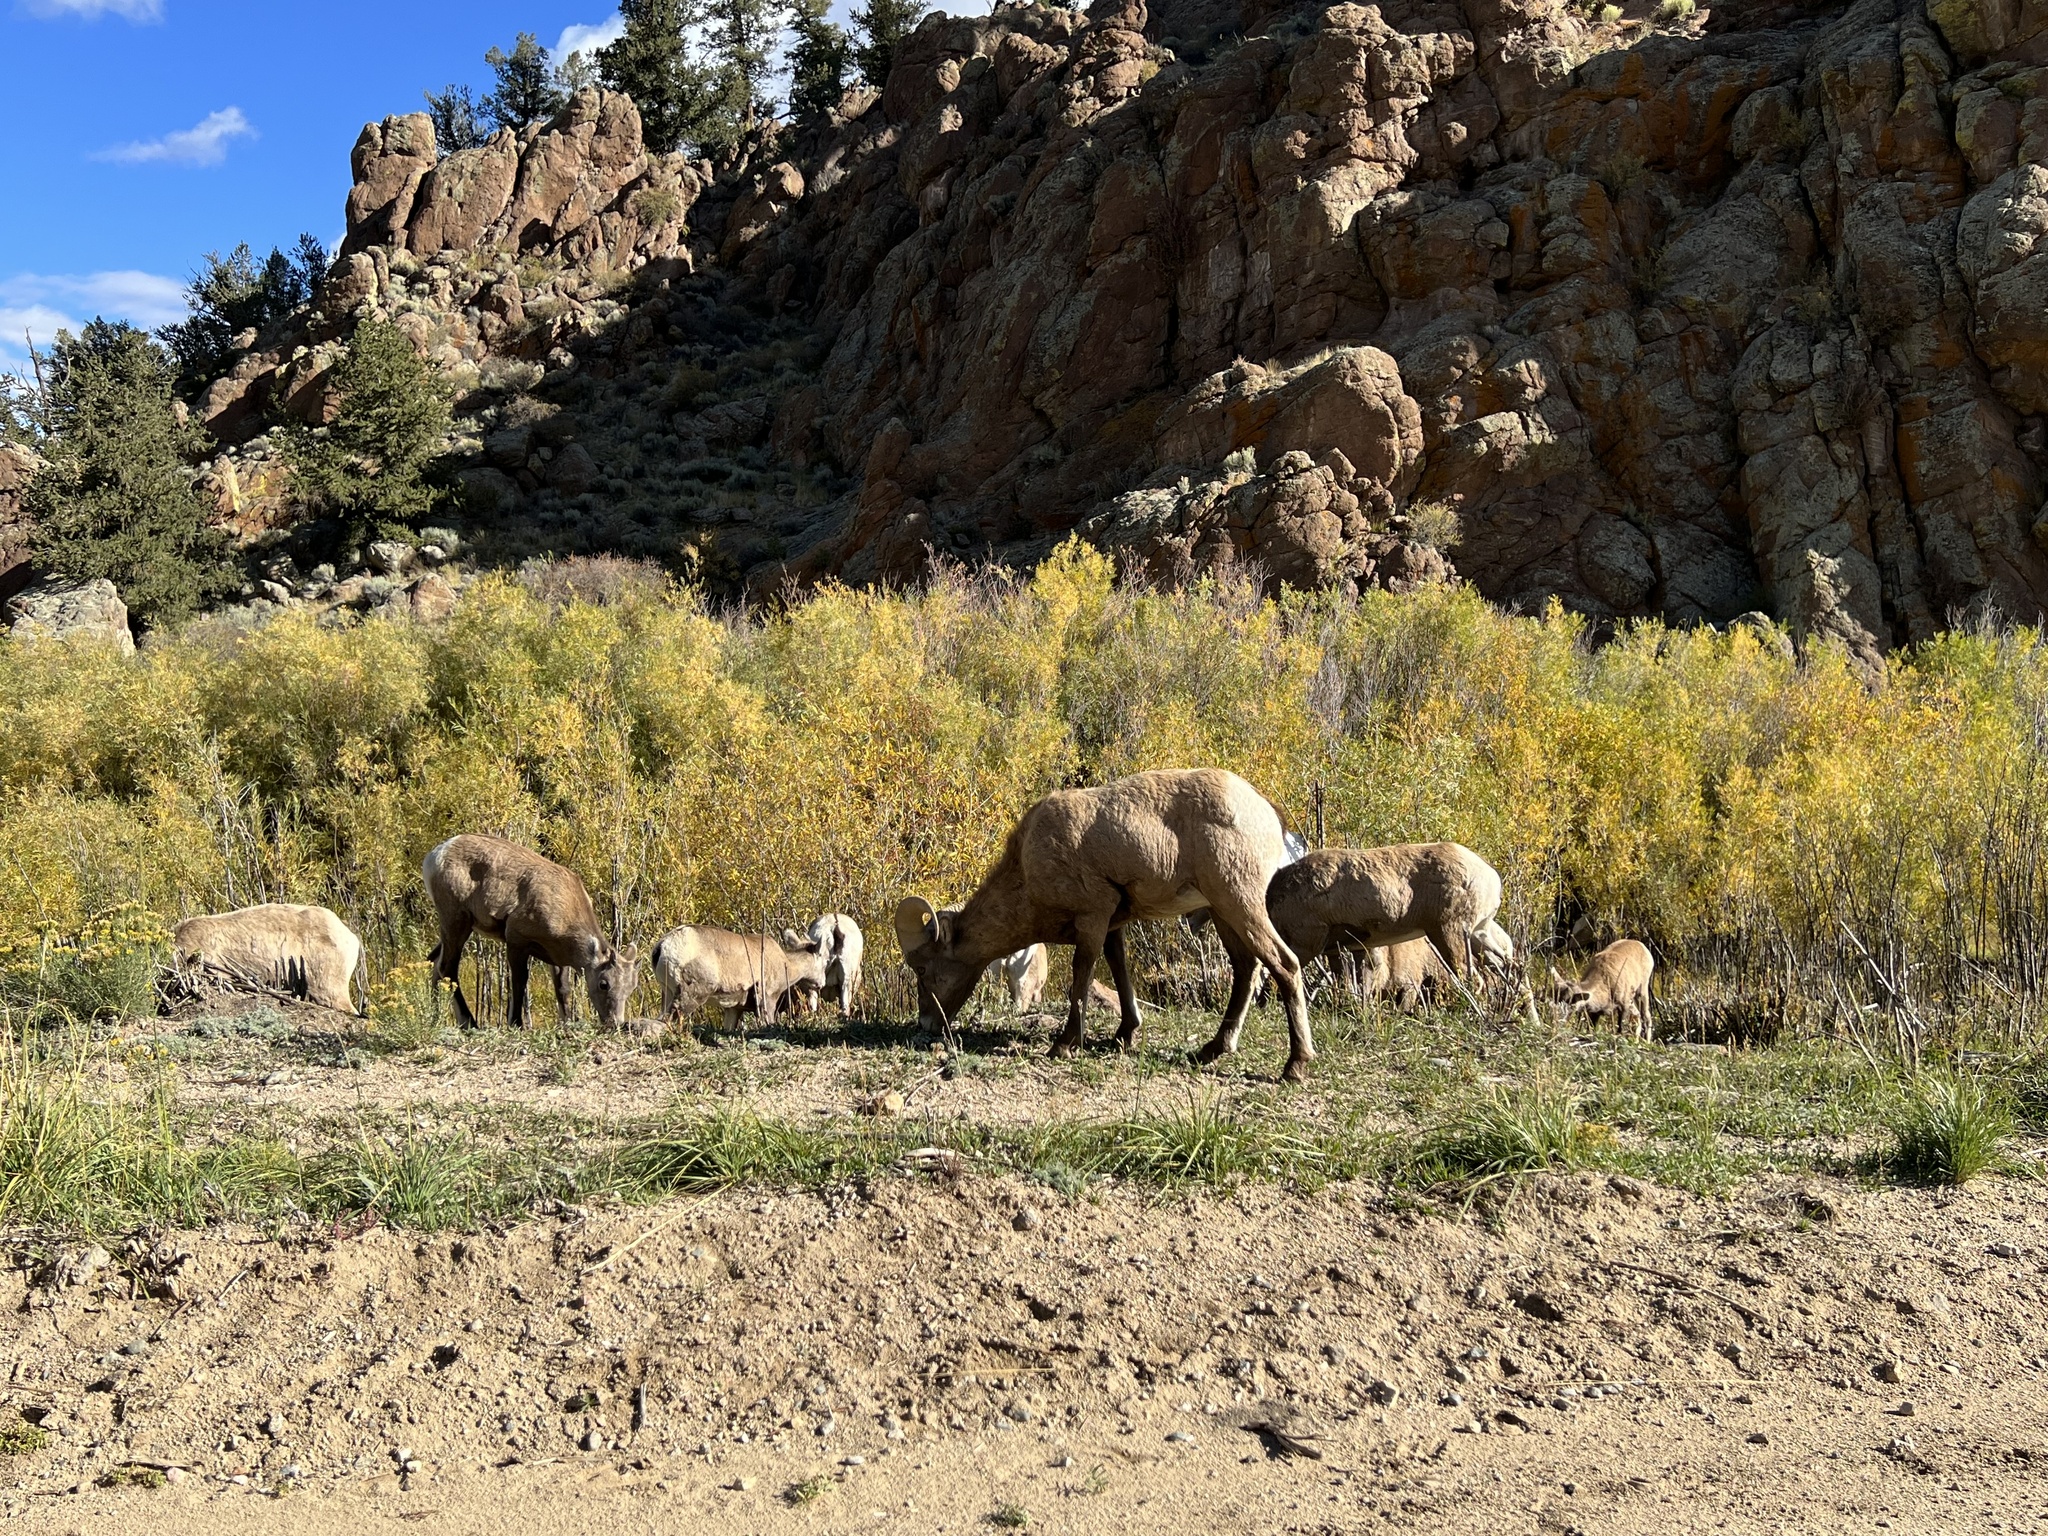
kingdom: Animalia
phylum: Chordata
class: Mammalia
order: Artiodactyla
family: Bovidae
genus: Ovis
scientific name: Ovis canadensis
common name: Bighorn sheep
